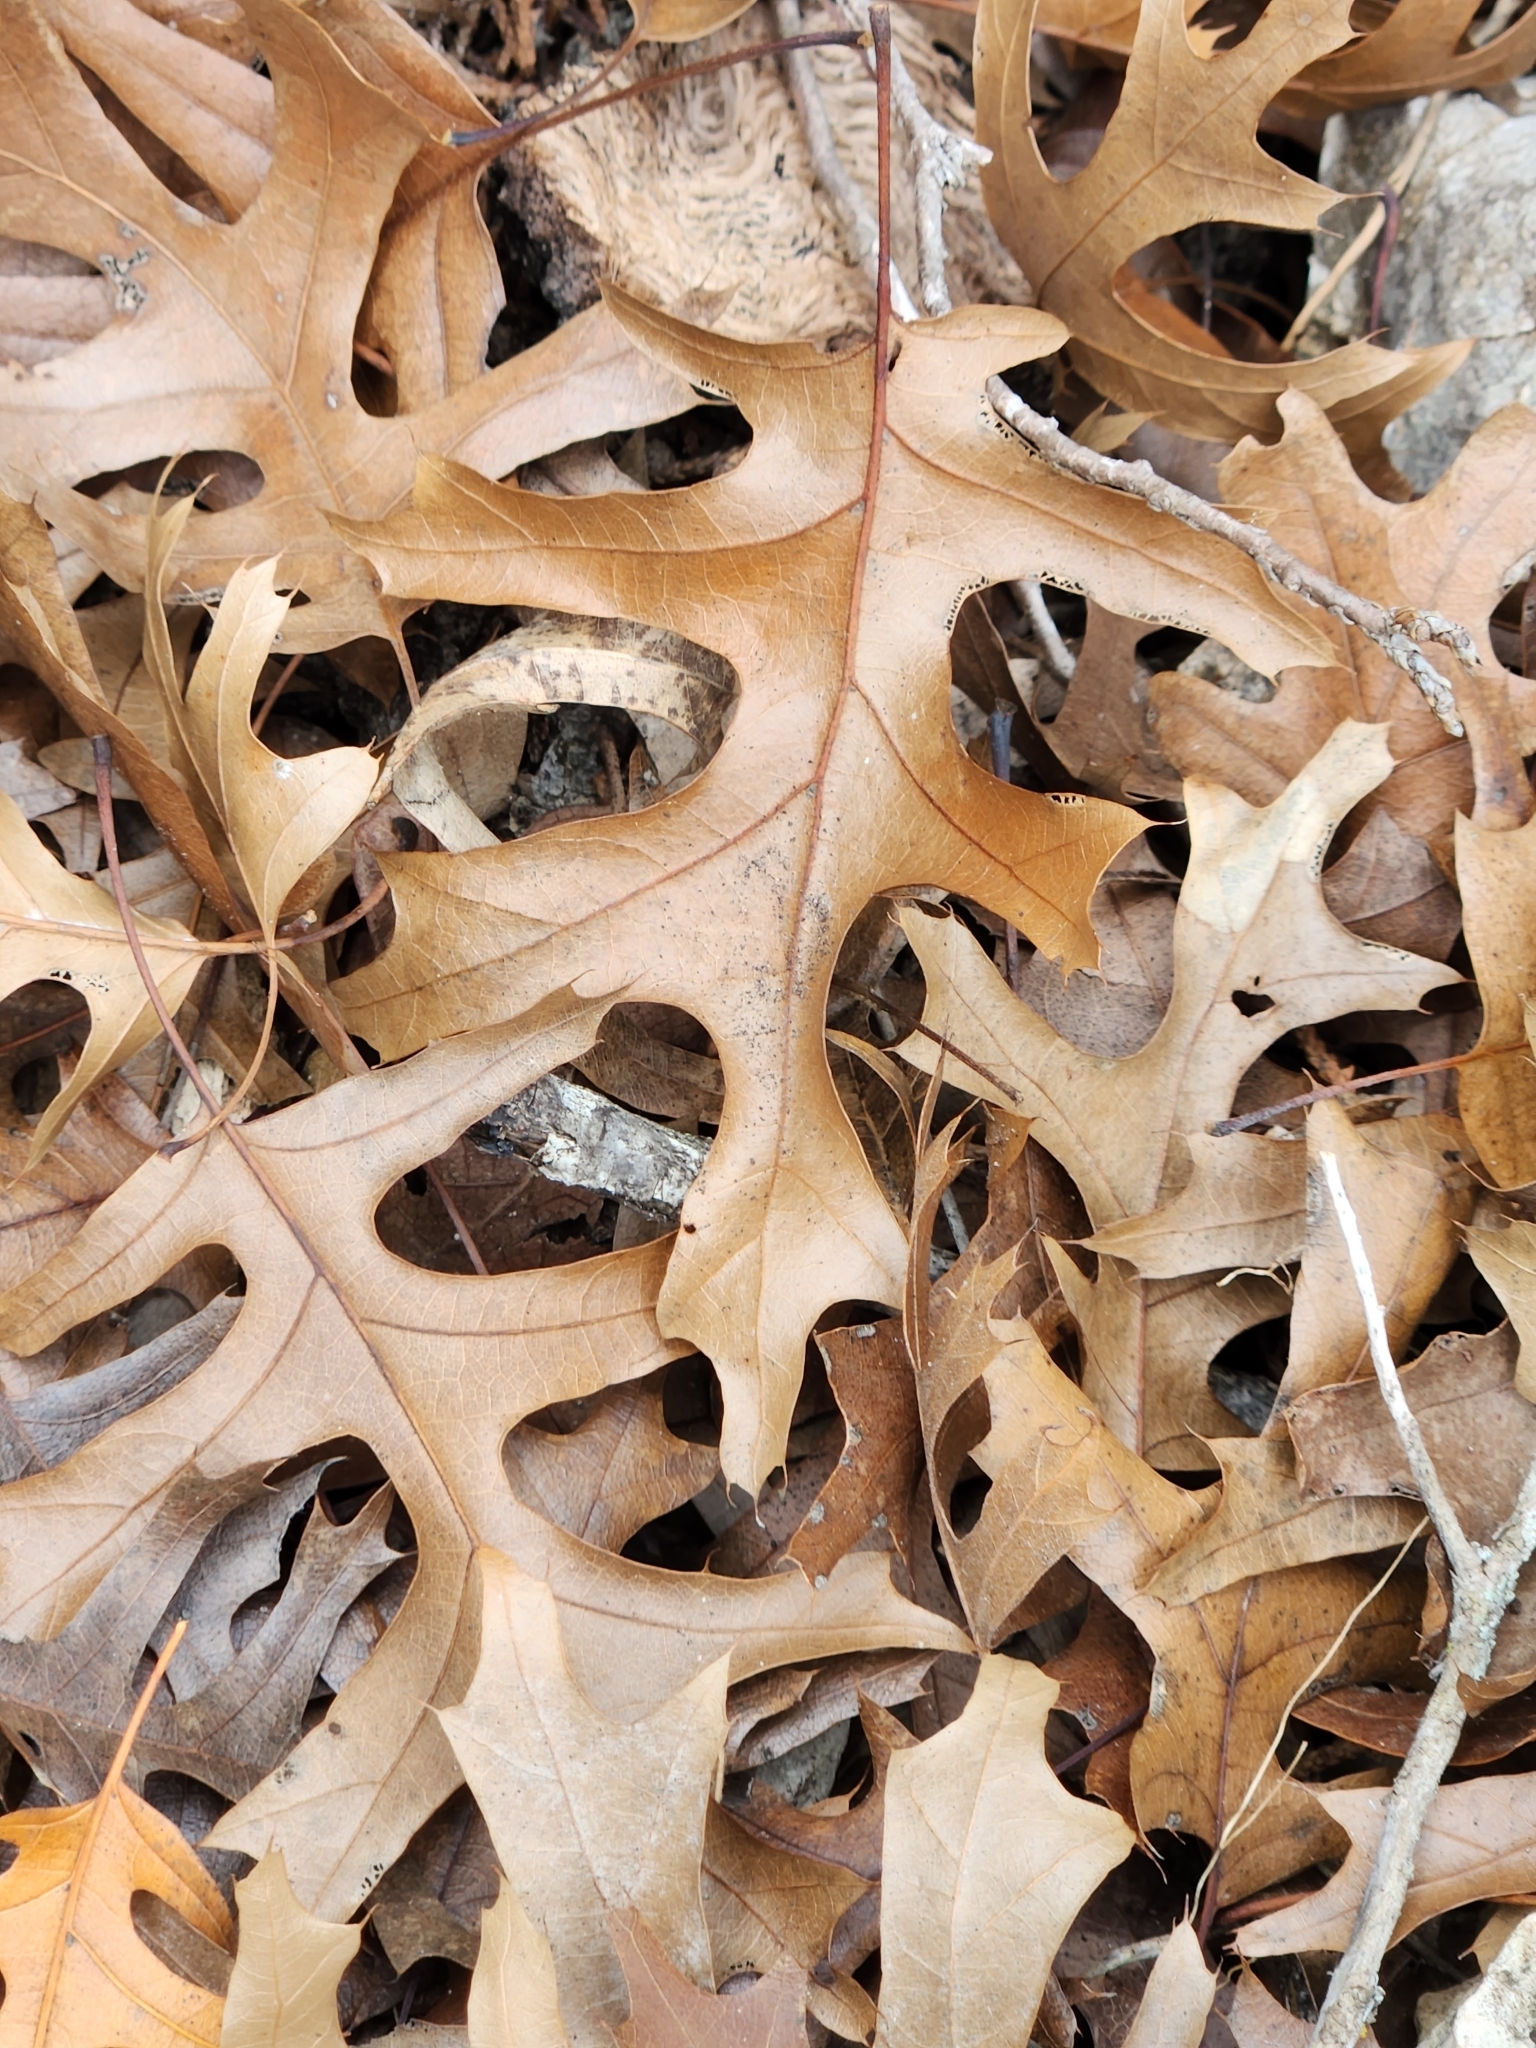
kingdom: Plantae
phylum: Tracheophyta
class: Magnoliopsida
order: Fagales
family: Fagaceae
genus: Quercus
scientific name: Quercus buckleyi
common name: Buckley oak
